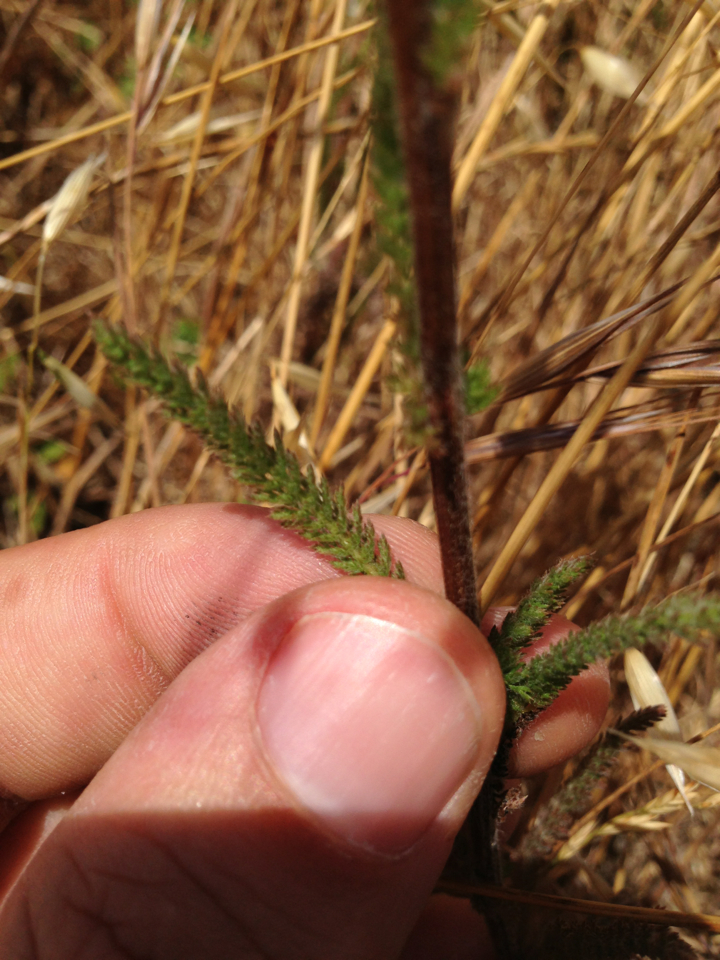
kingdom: Plantae
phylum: Tracheophyta
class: Magnoliopsida
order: Asterales
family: Asteraceae
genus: Achillea
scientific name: Achillea millefolium
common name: Yarrow
